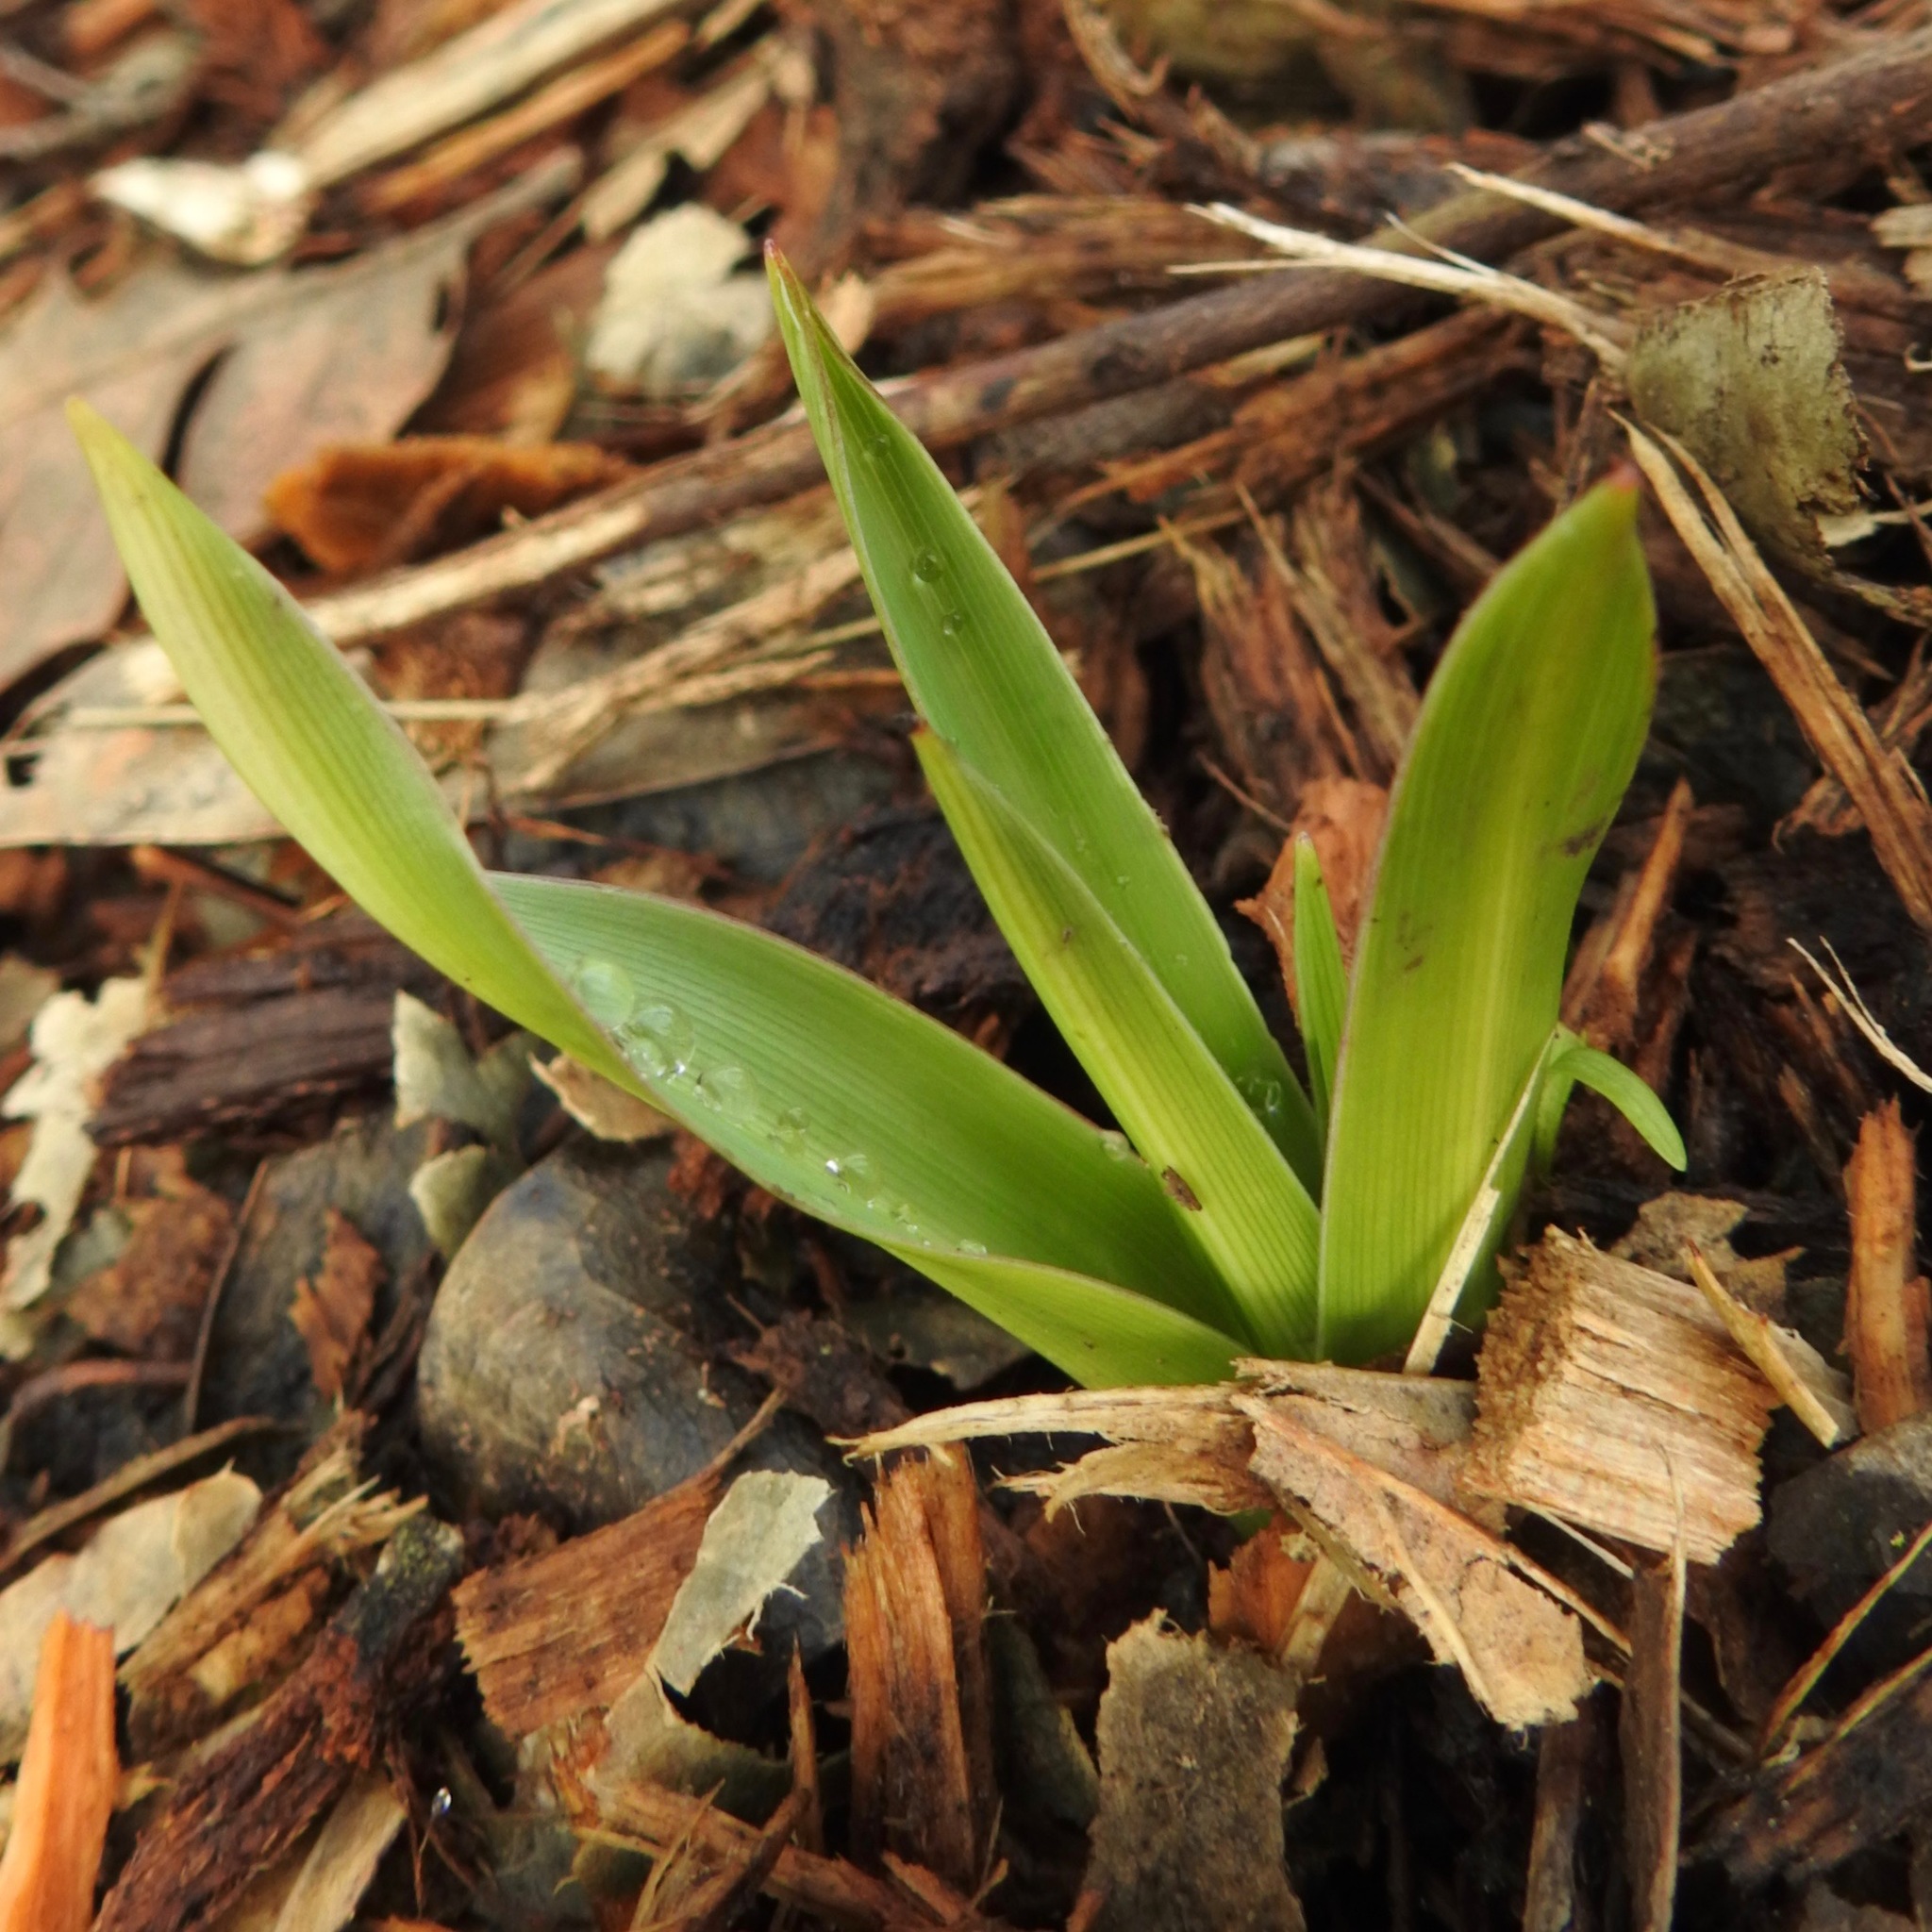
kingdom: Plantae
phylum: Tracheophyta
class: Liliopsida
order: Asparagales
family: Asparagaceae
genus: Chlorogalum
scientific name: Chlorogalum pomeridianum
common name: Amole
